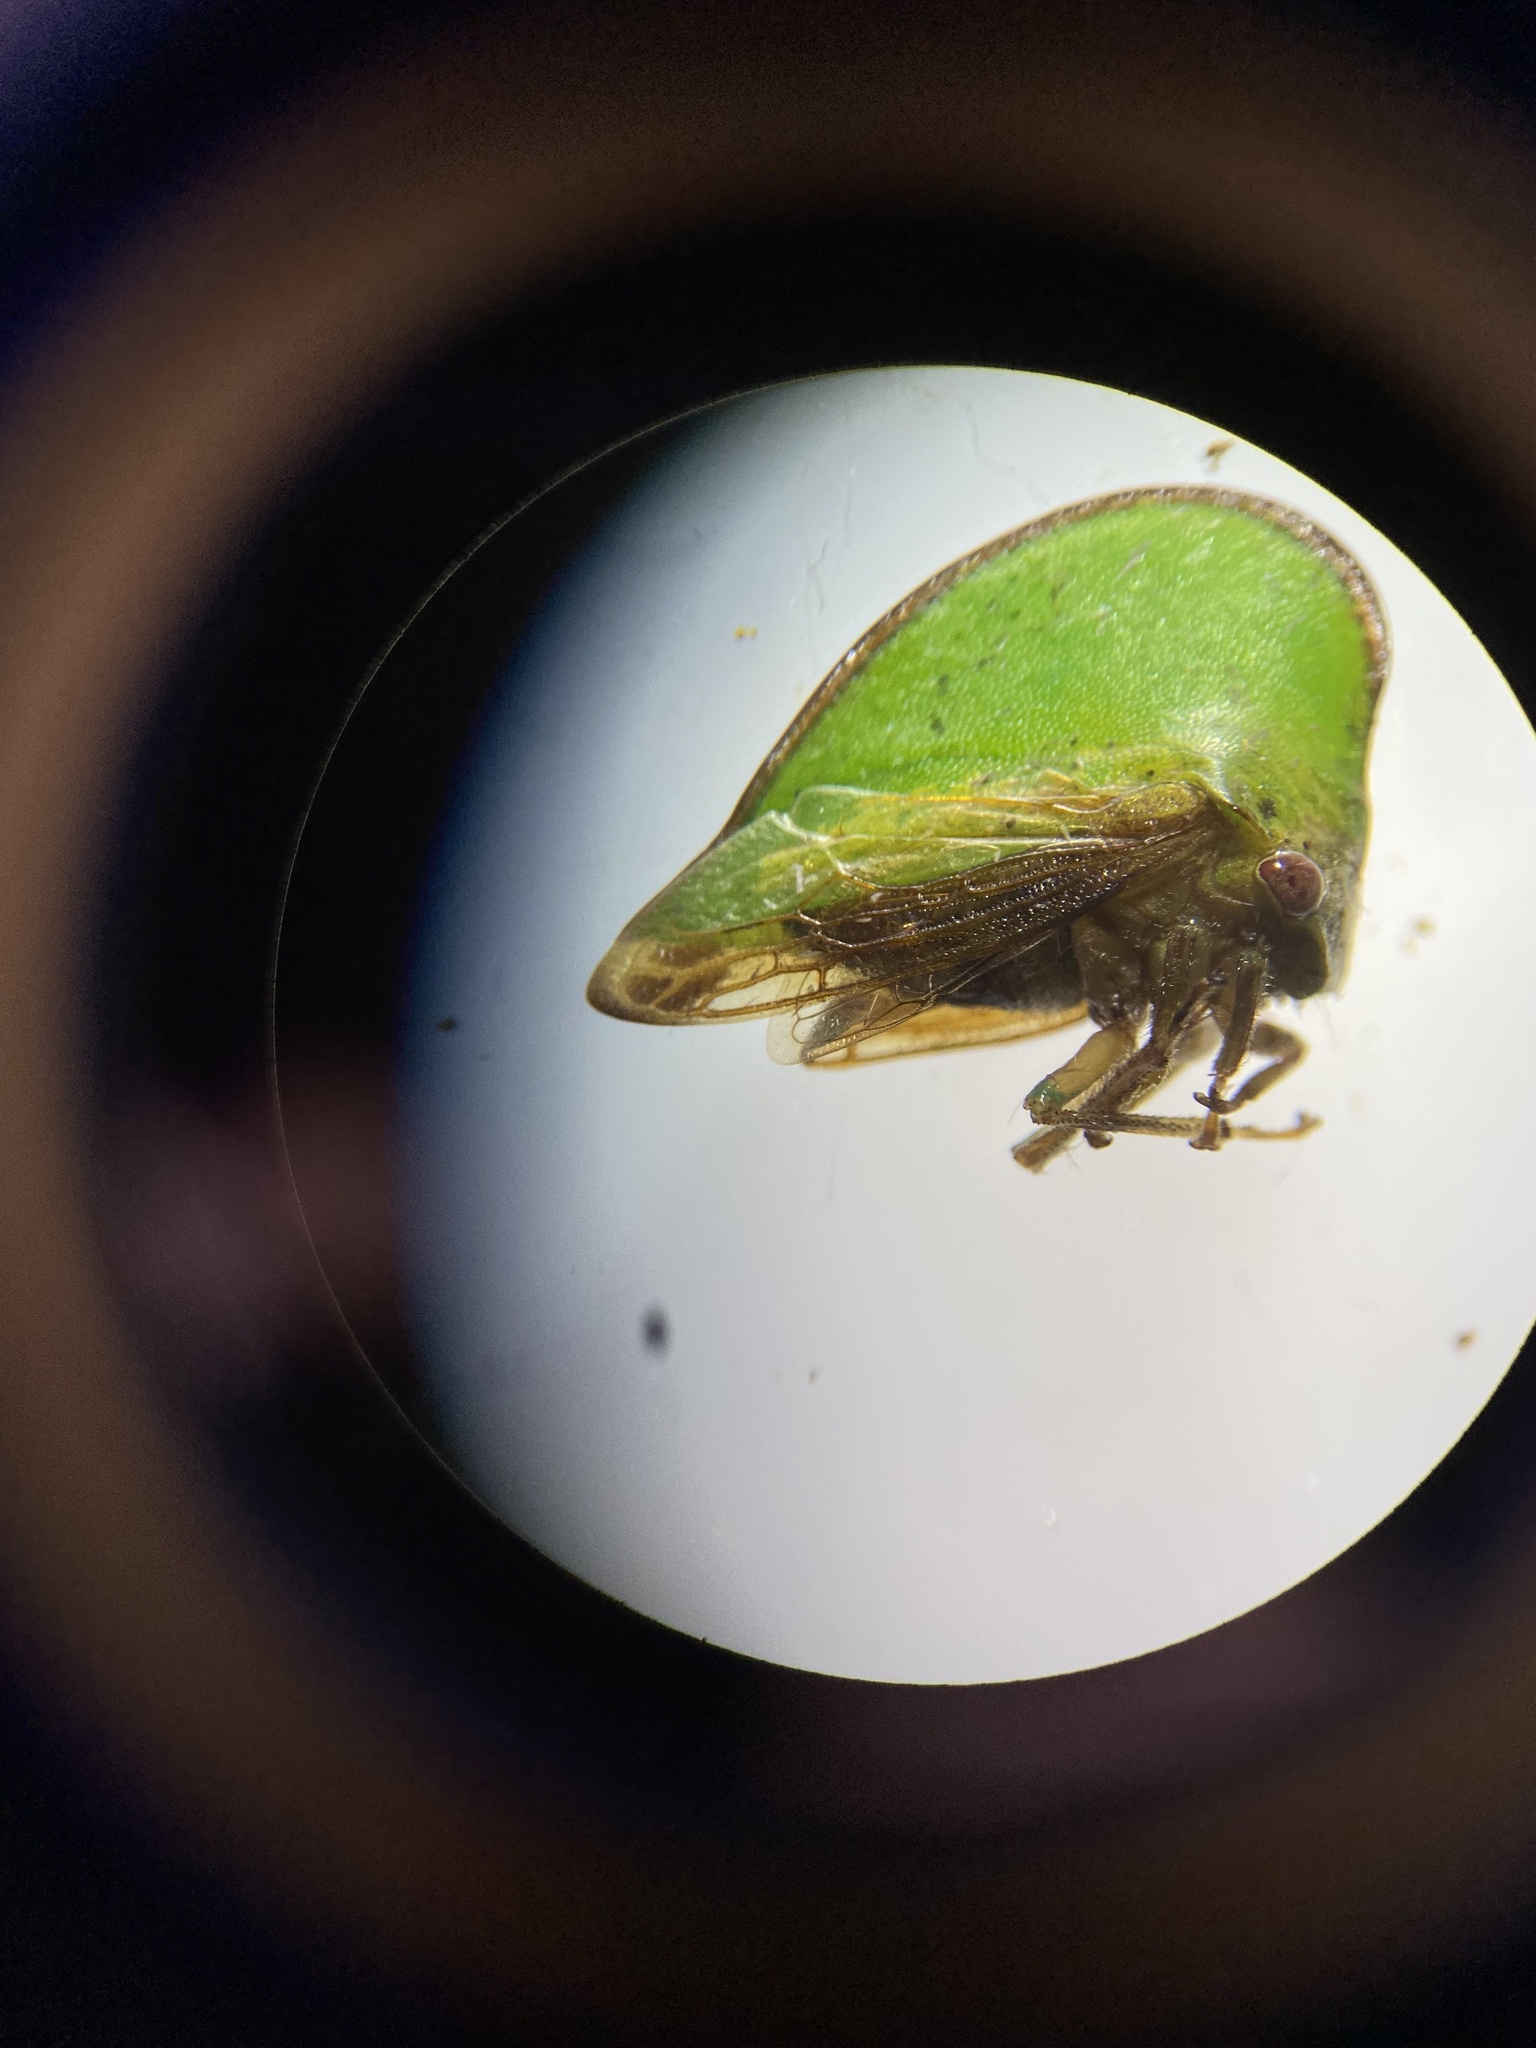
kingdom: Animalia
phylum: Arthropoda
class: Insecta
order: Hemiptera
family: Membracidae
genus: Archasia
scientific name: Archasia belfragei
